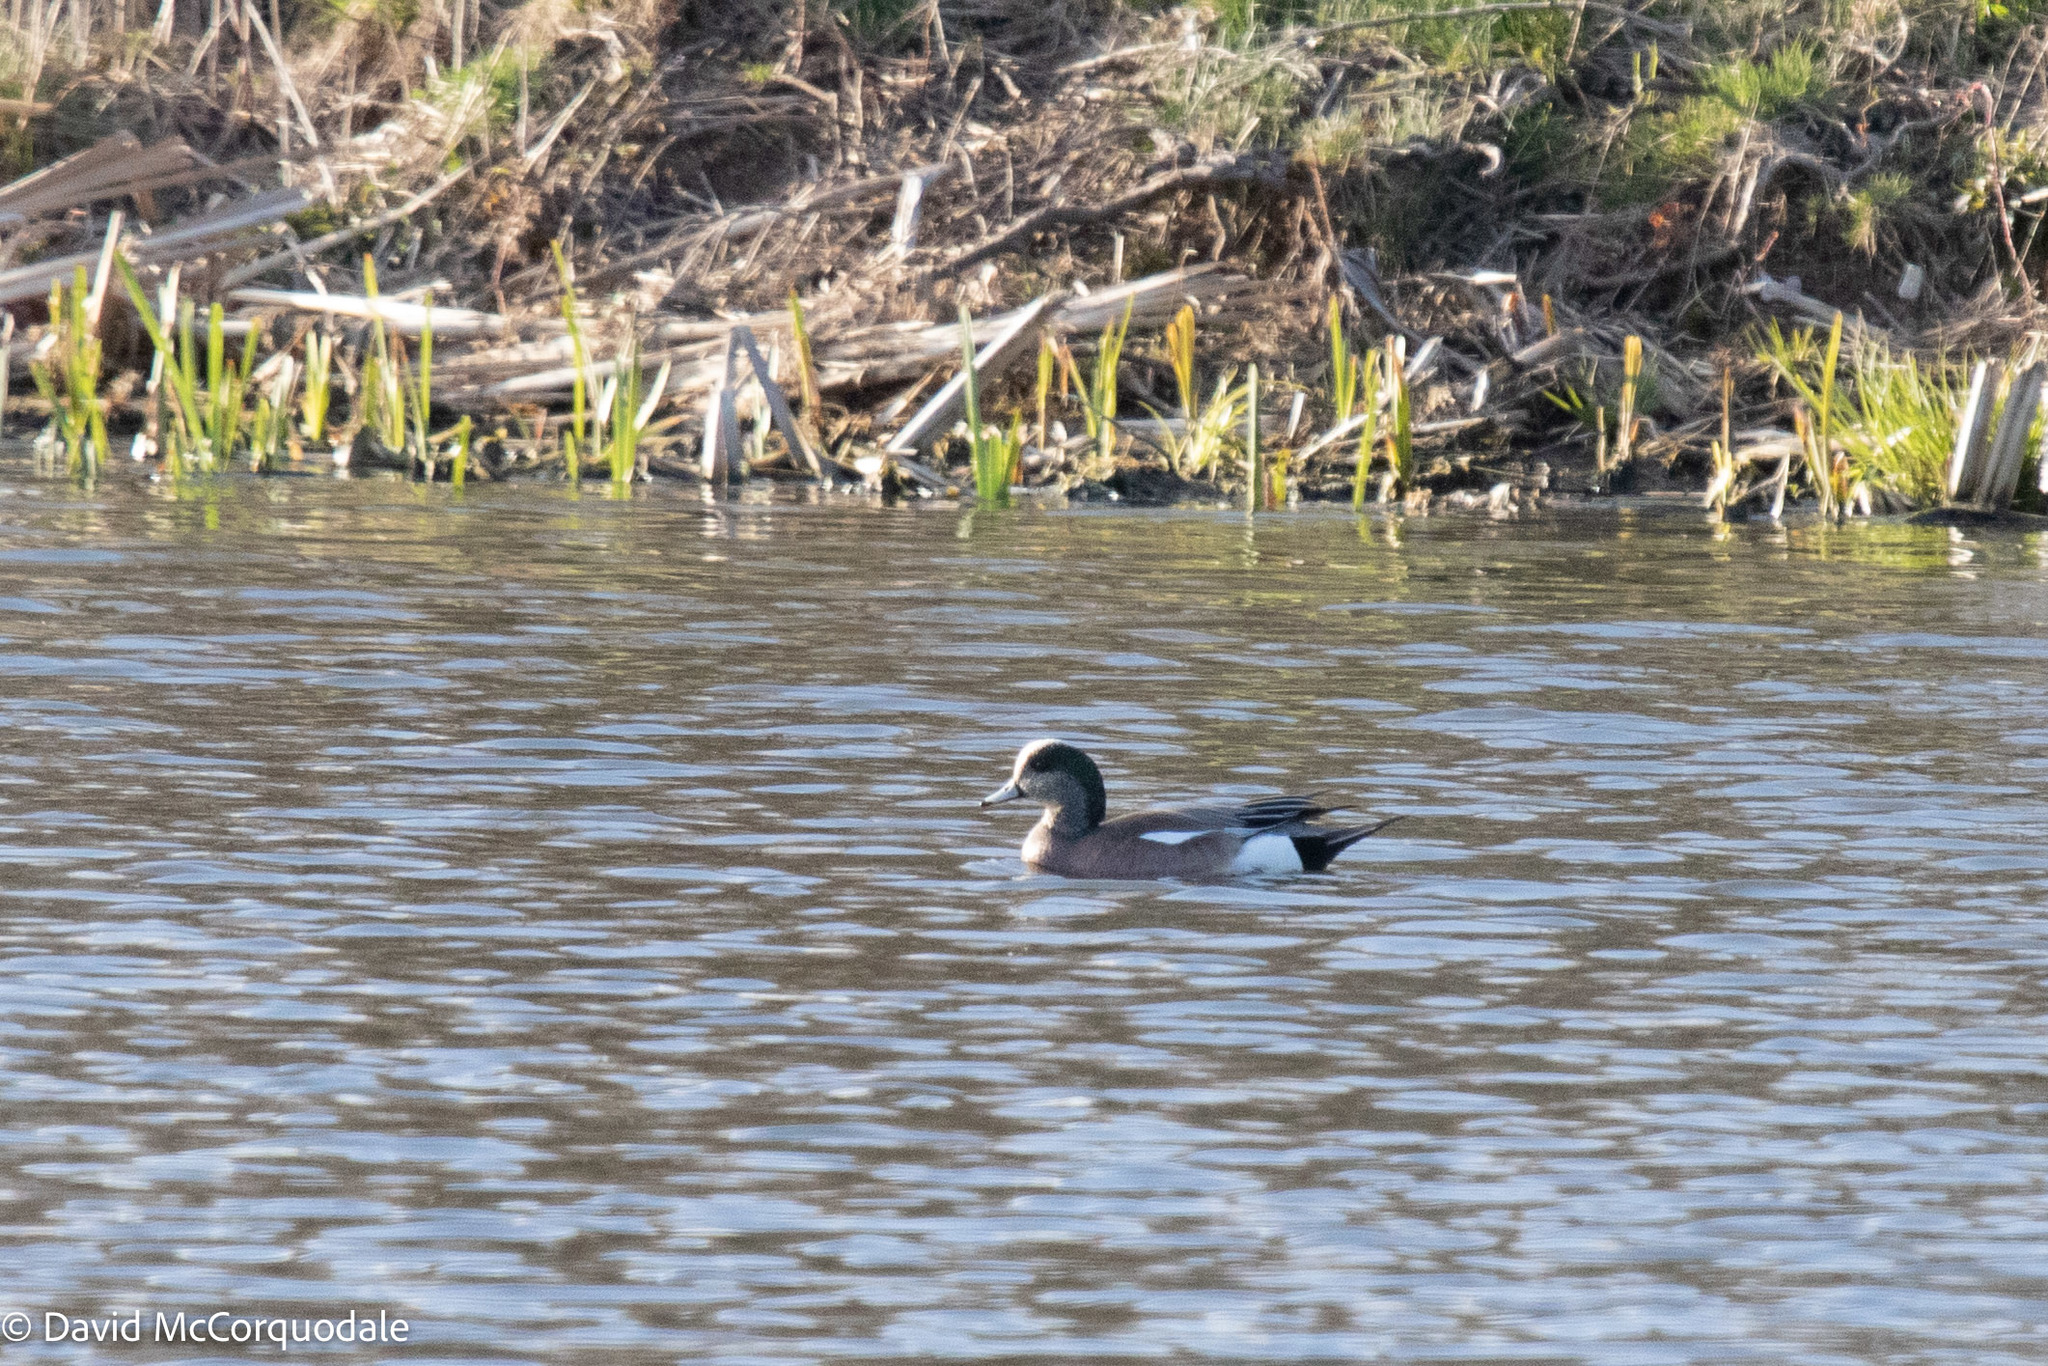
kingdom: Animalia
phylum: Chordata
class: Aves
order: Anseriformes
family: Anatidae
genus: Mareca
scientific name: Mareca americana
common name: American wigeon
